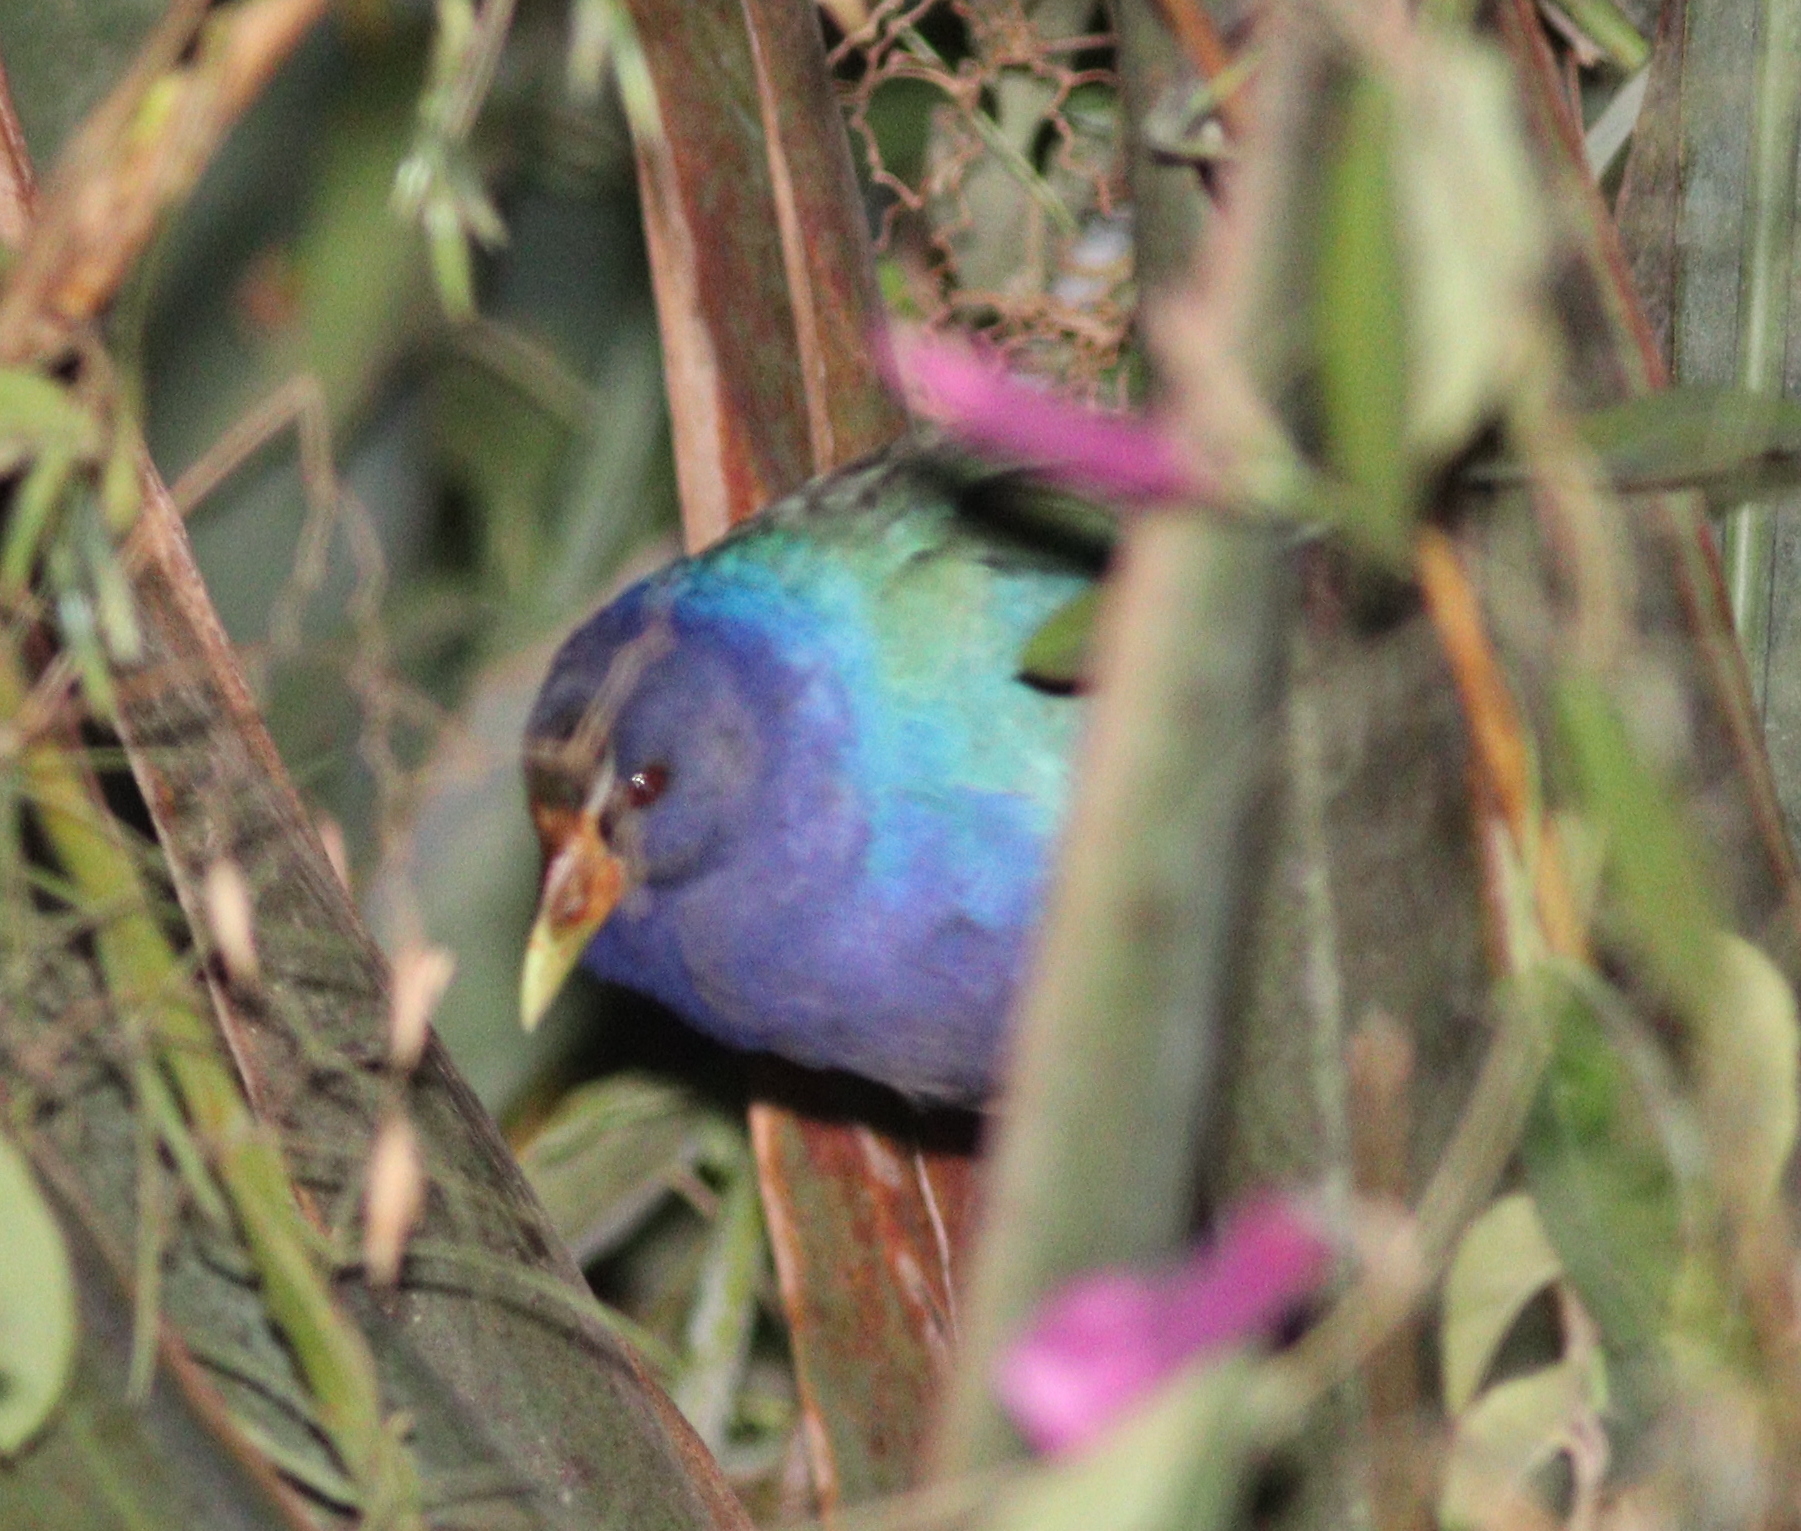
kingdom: Animalia
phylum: Chordata
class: Aves
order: Gruiformes
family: Rallidae
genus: Porphyrio
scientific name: Porphyrio martinica
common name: Purple gallinule
